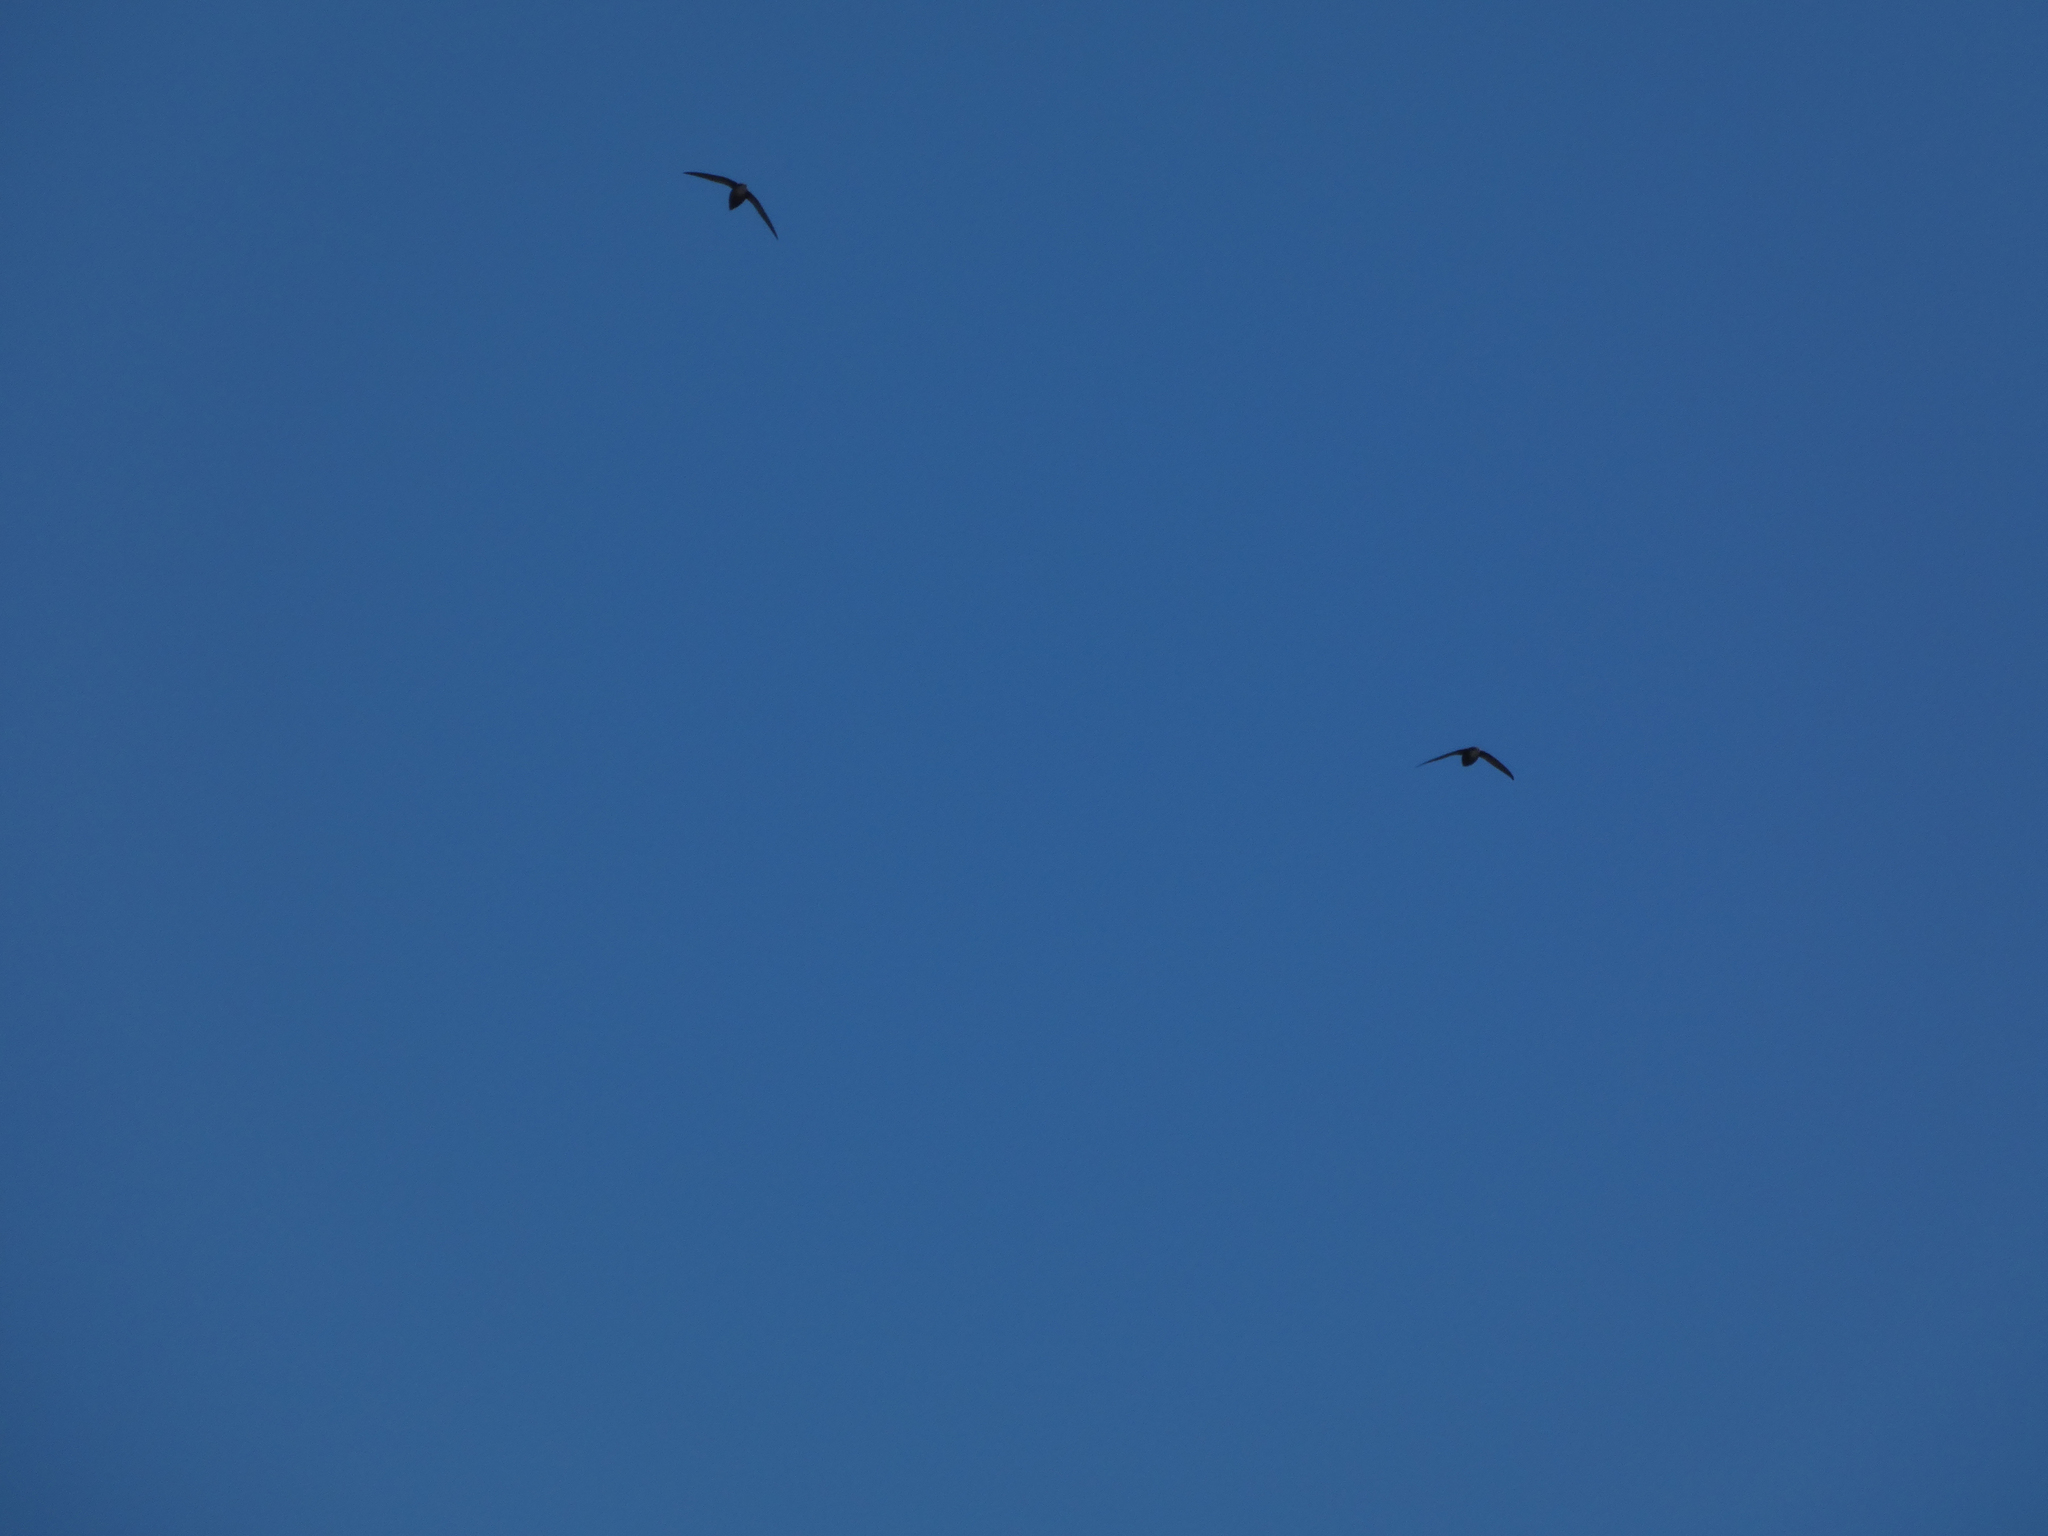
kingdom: Animalia
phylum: Chordata
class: Aves
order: Apodiformes
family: Apodidae
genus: Chaetura
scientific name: Chaetura pelagica
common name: Chimney swift
